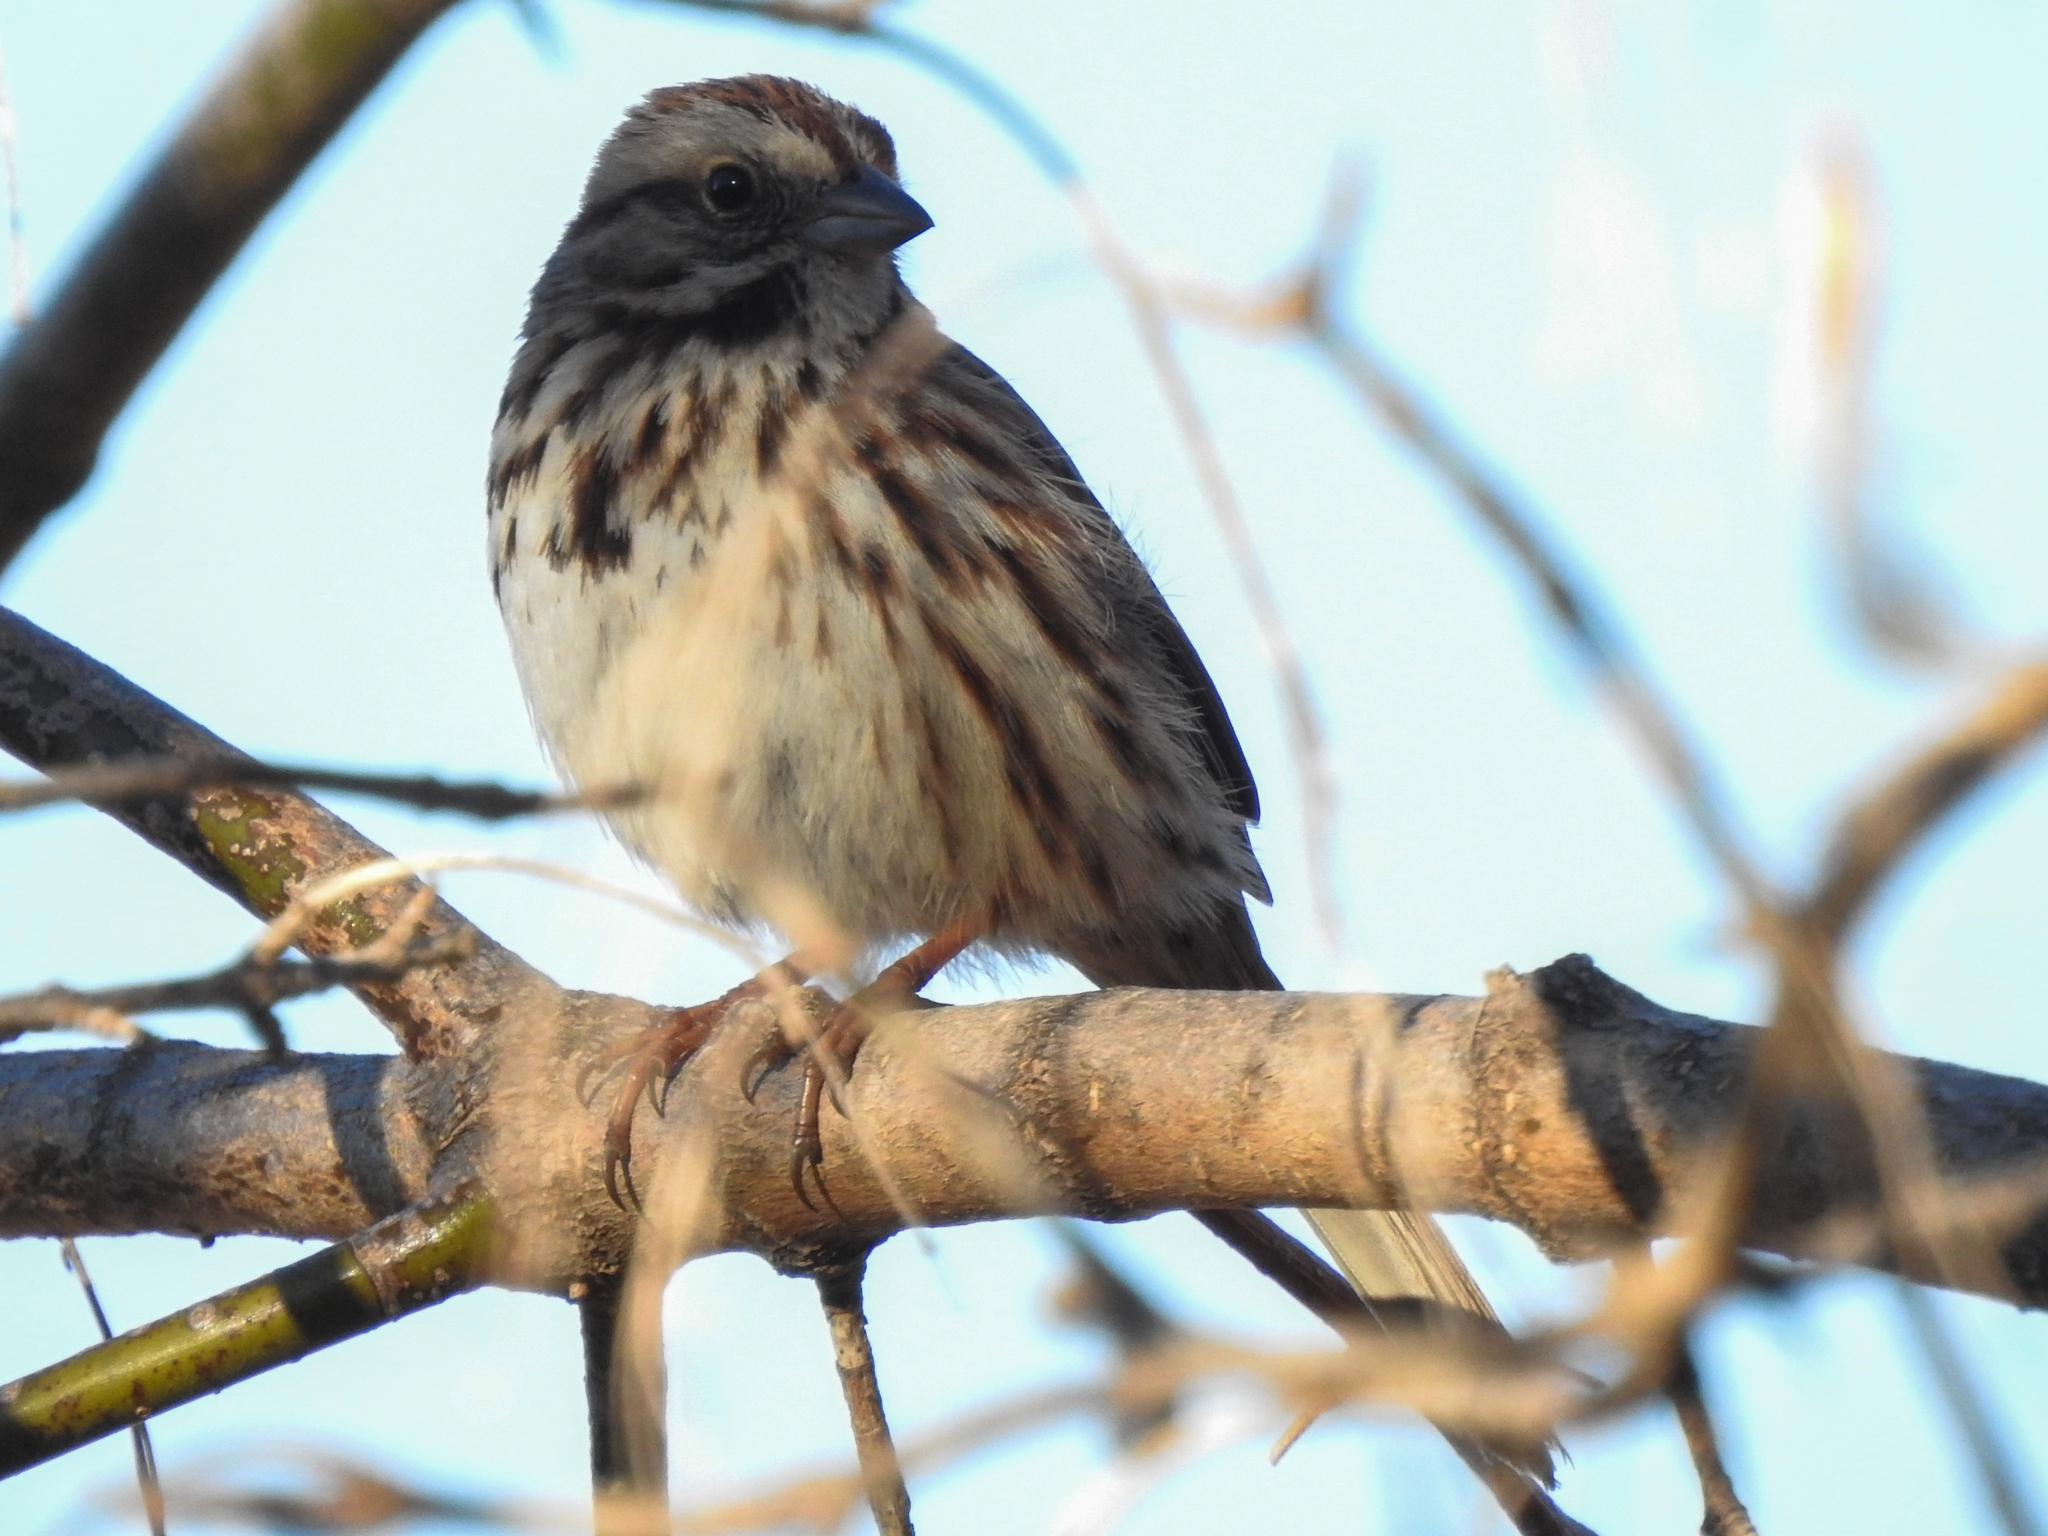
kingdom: Animalia
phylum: Chordata
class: Aves
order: Passeriformes
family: Passerellidae
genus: Melospiza
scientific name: Melospiza melodia
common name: Song sparrow
